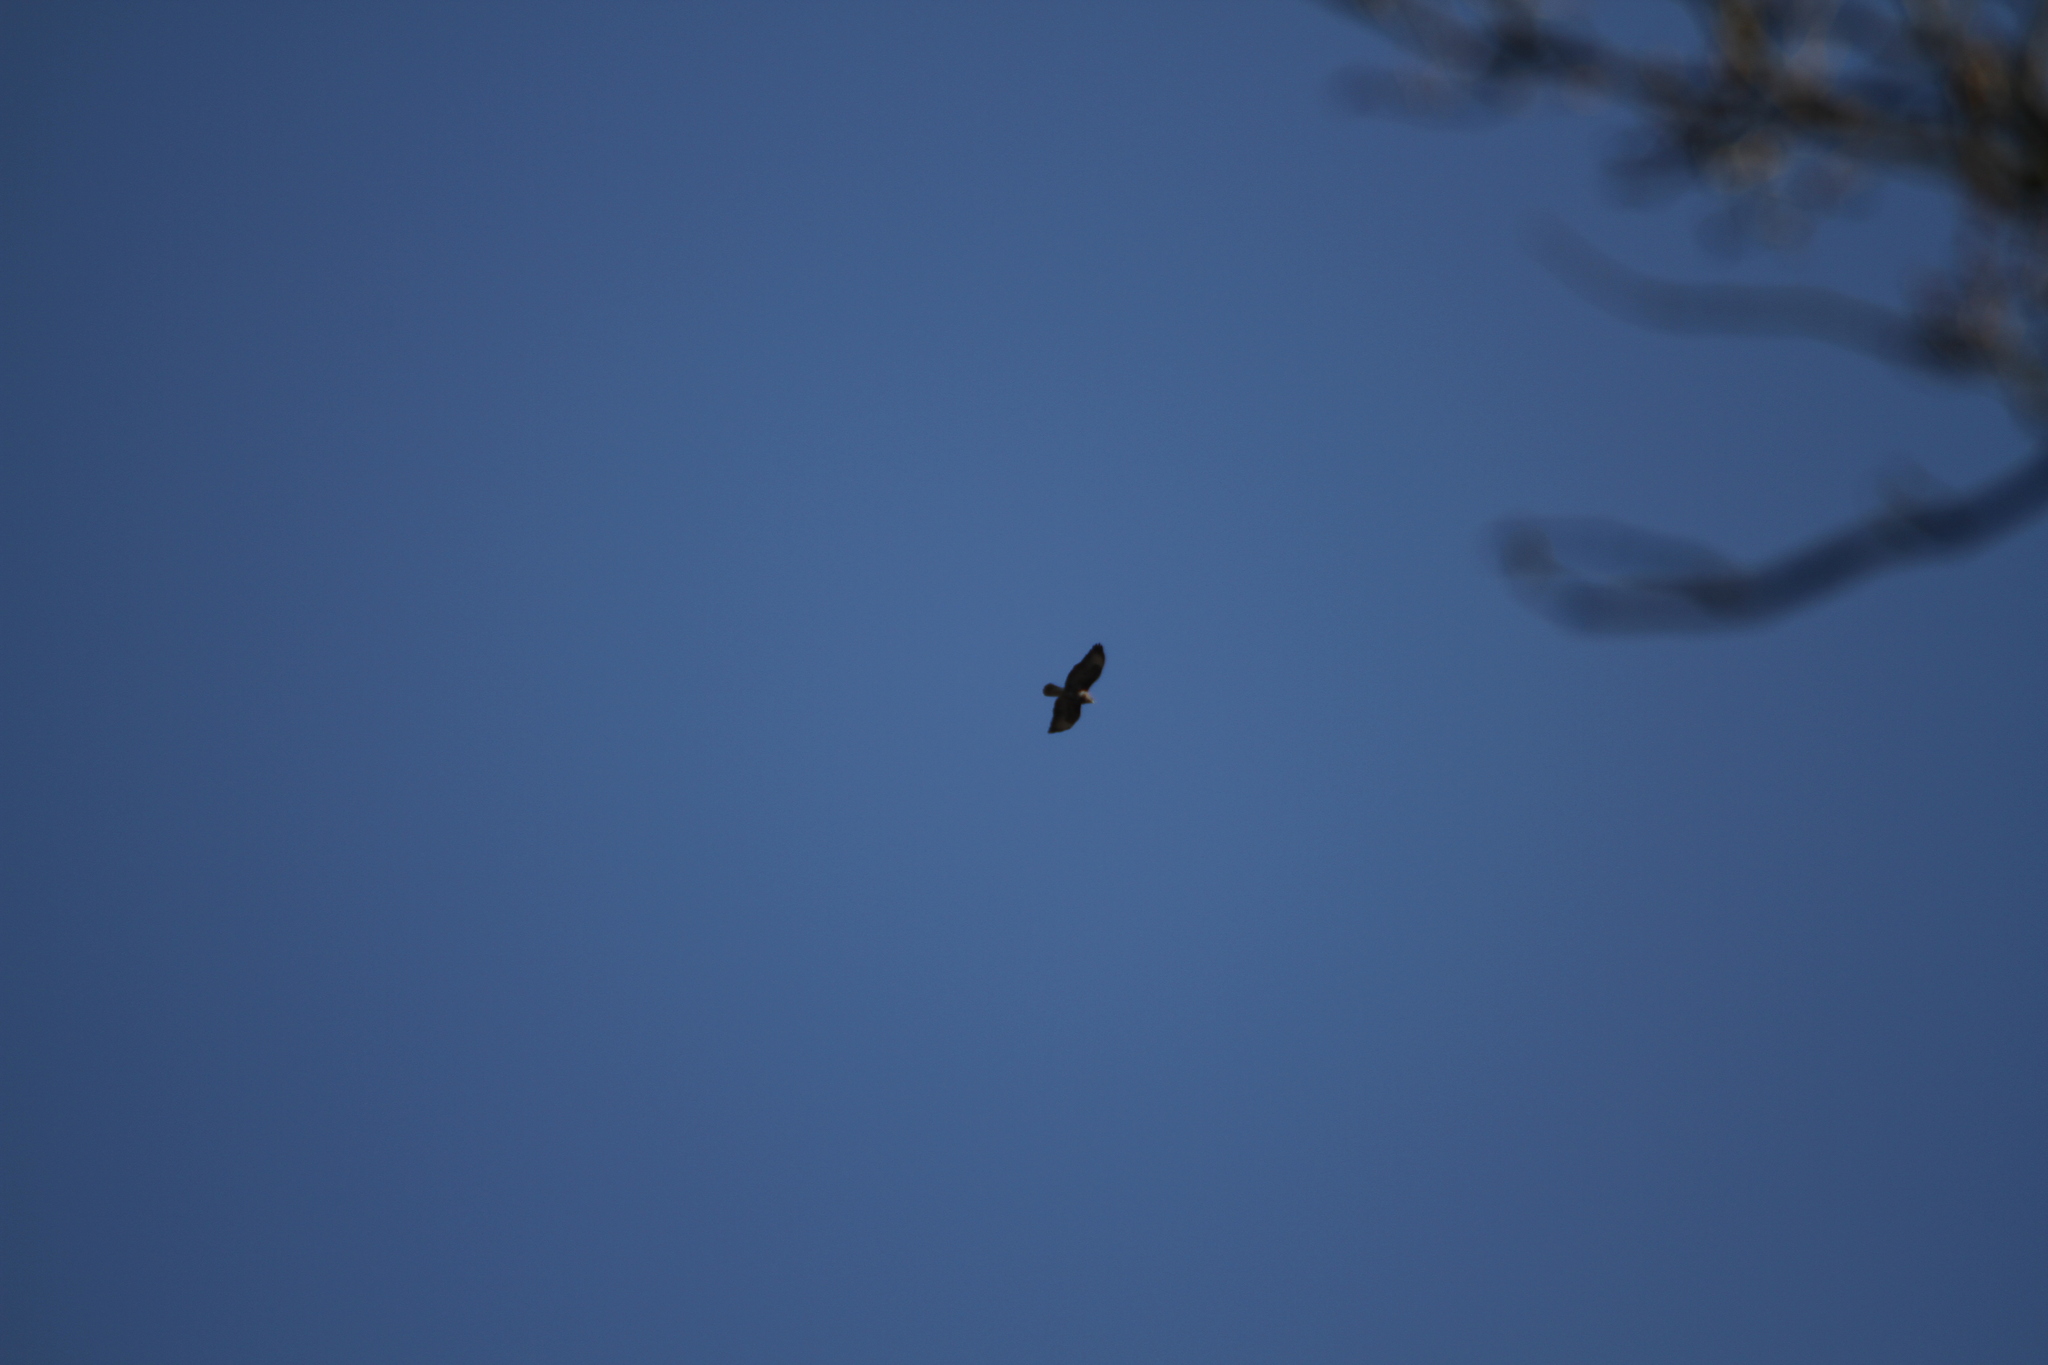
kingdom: Animalia
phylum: Chordata
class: Aves
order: Accipitriformes
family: Accipitridae
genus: Buteo
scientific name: Buteo buteo
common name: Common buzzard
